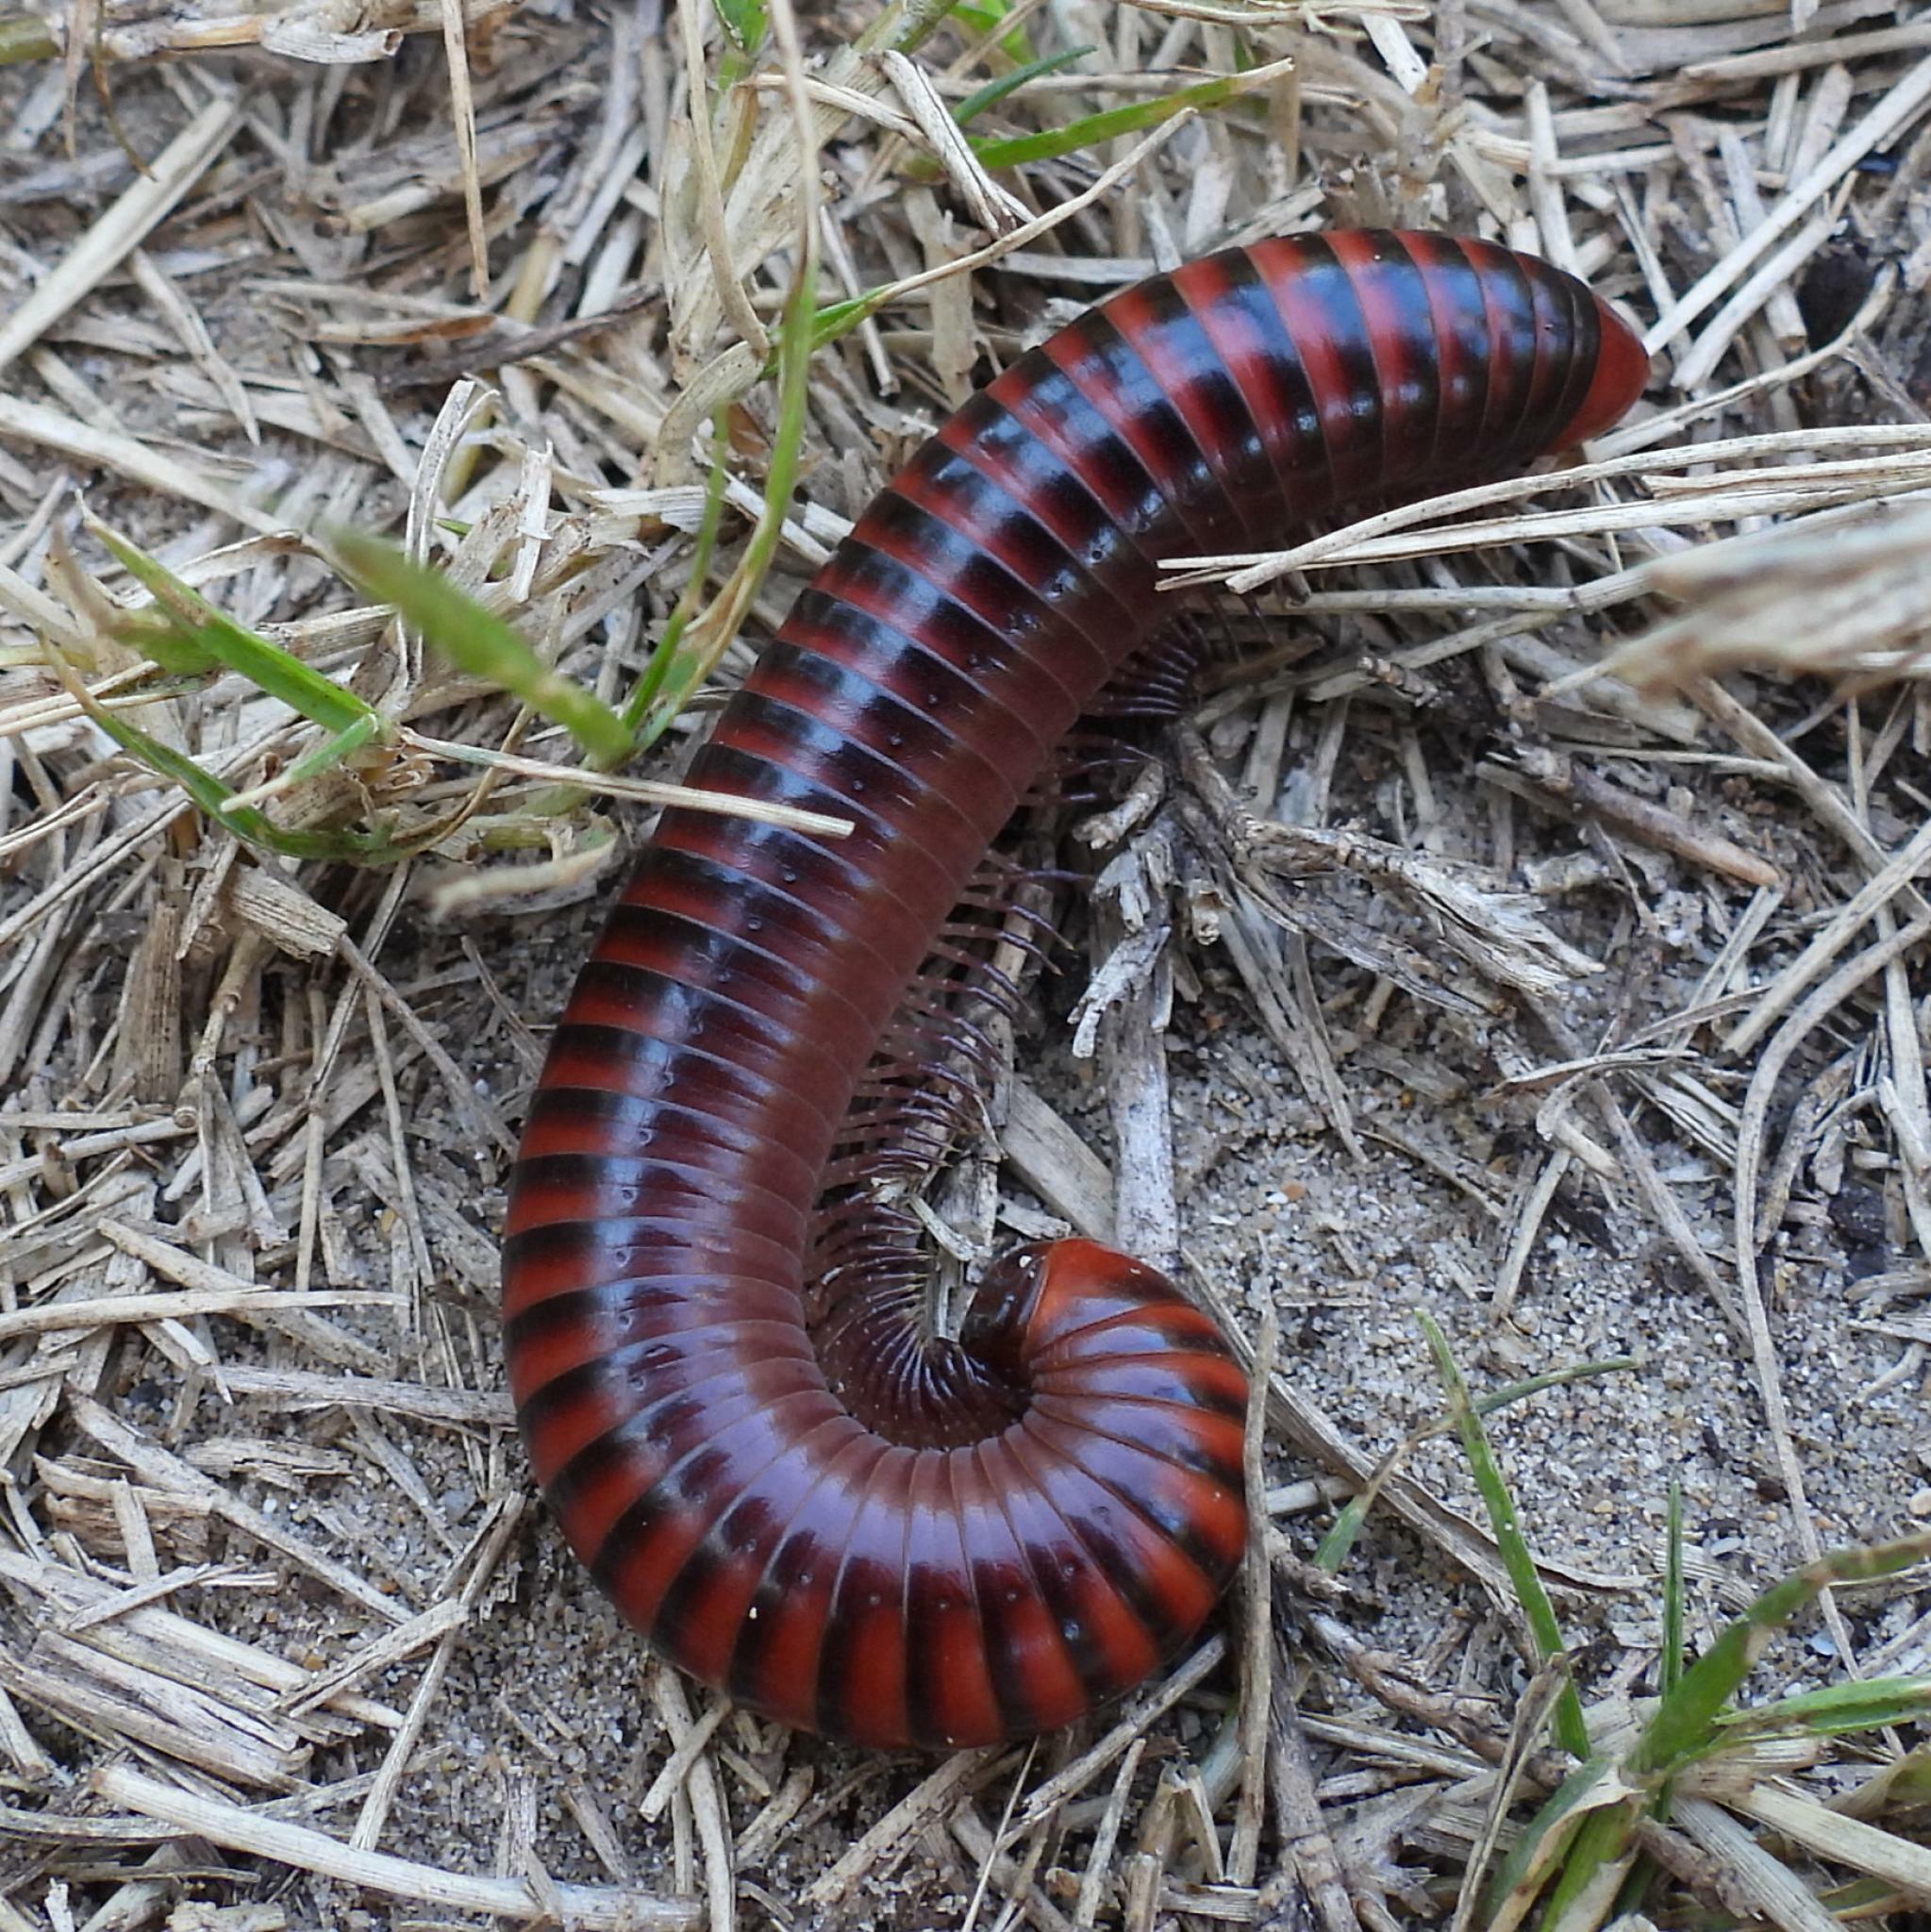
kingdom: Animalia
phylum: Arthropoda
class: Diplopoda
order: Spirobolida
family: Pachybolidae
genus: Centrobolus
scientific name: Centrobolus lugubris
